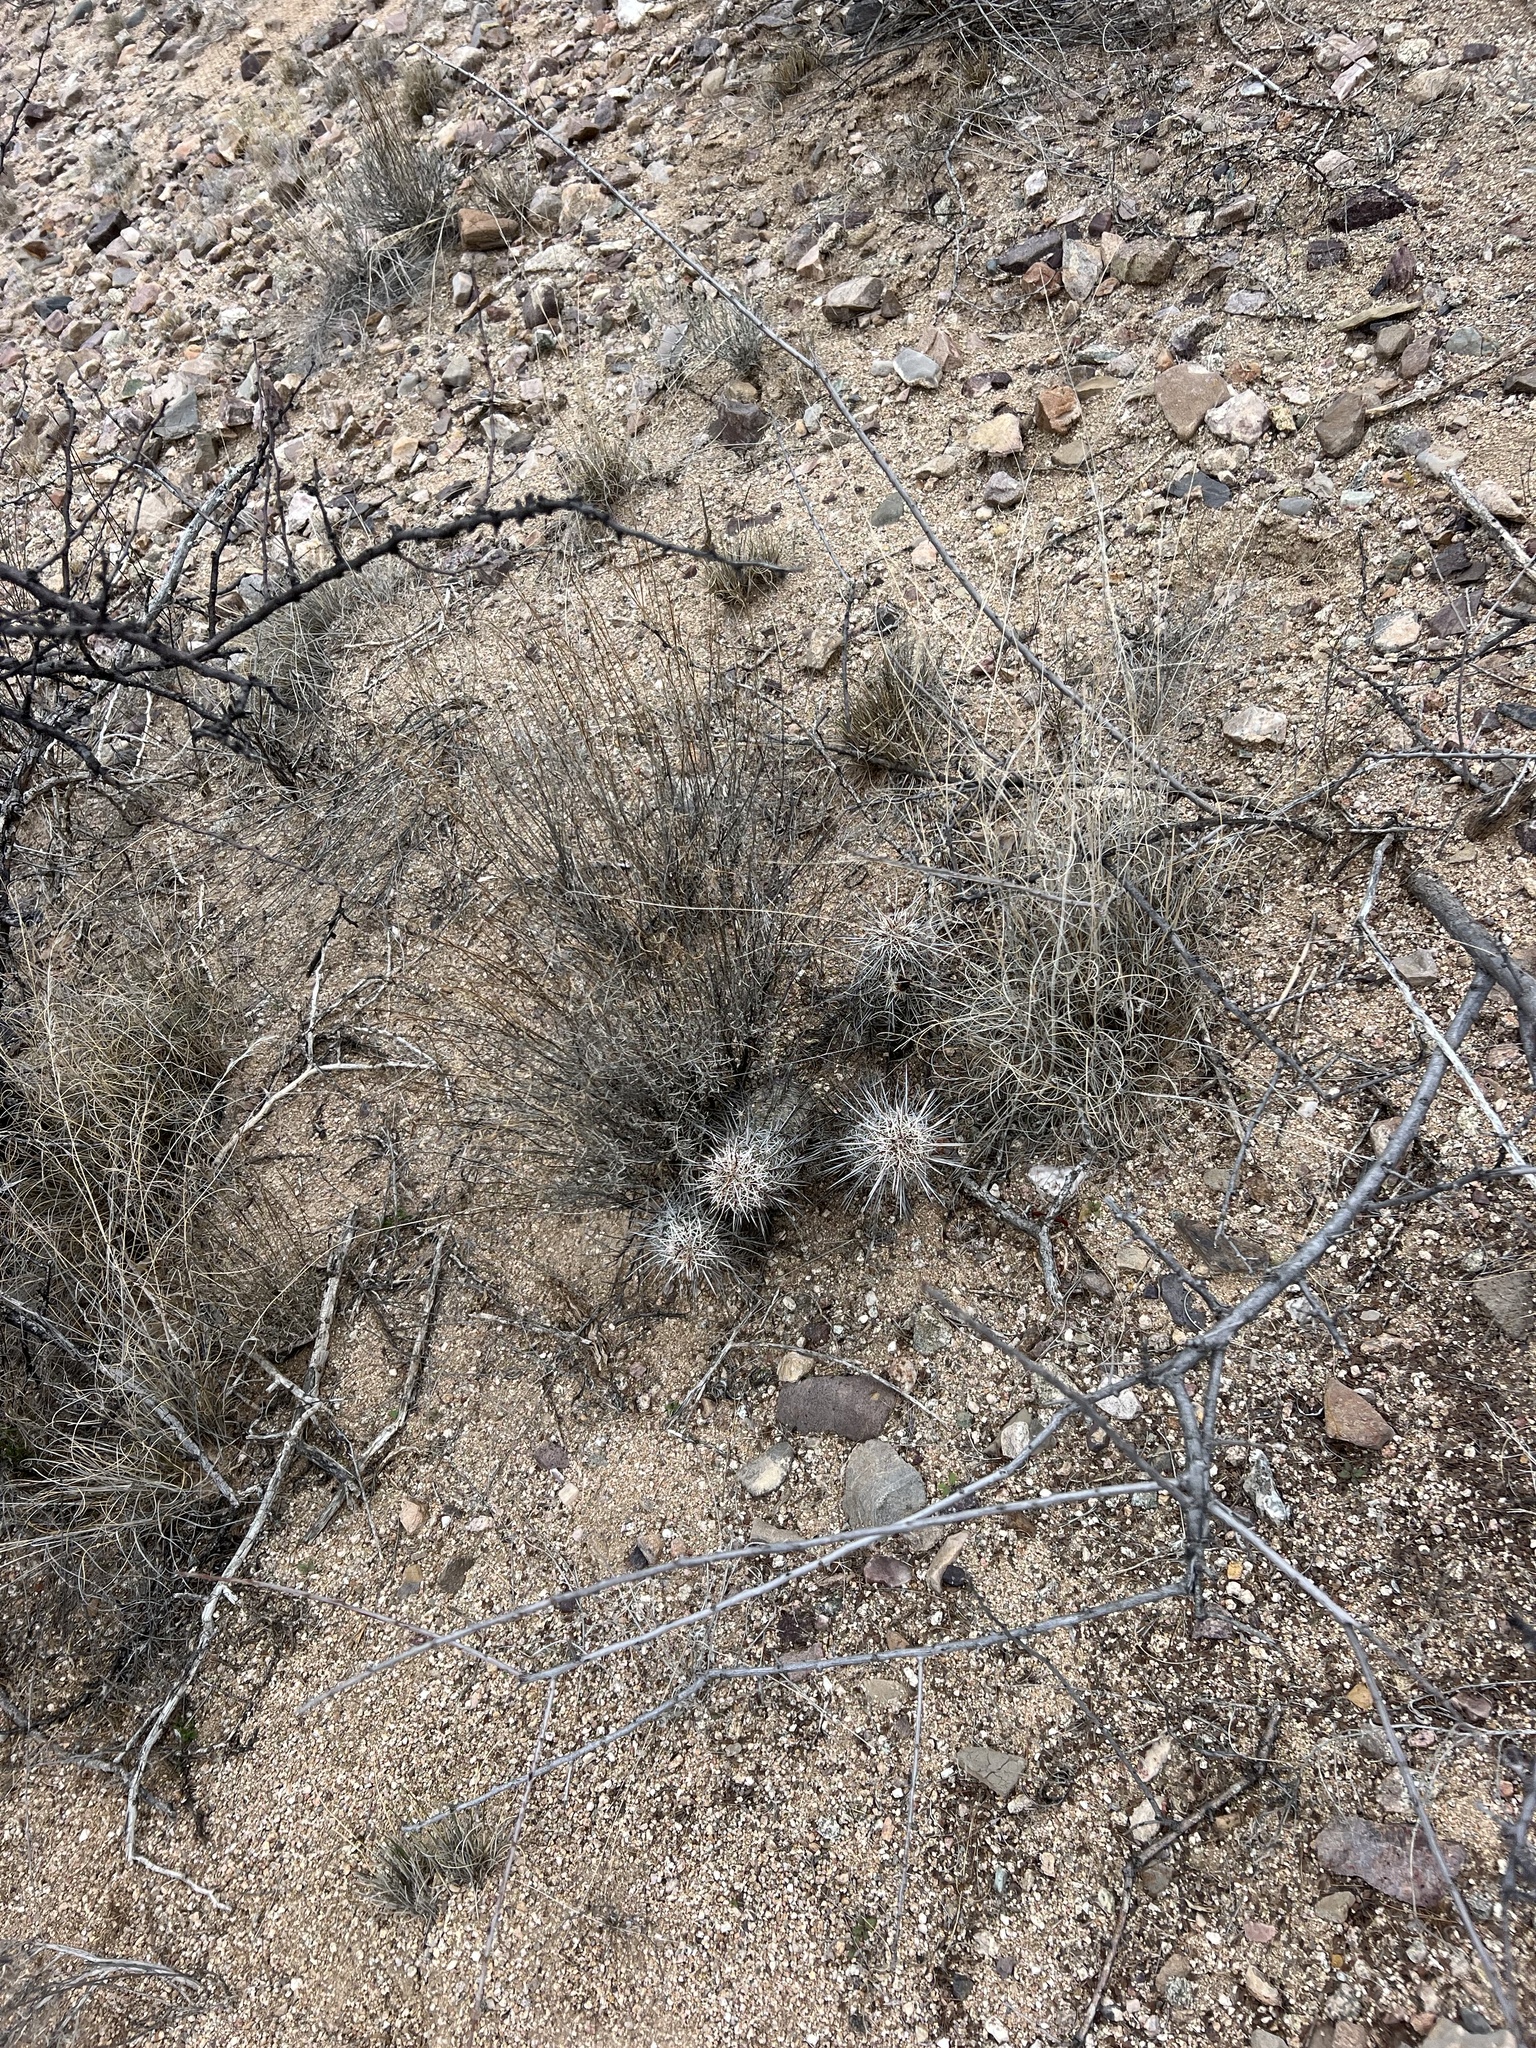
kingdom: Plantae
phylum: Tracheophyta
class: Magnoliopsida
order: Caryophyllales
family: Cactaceae
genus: Echinocereus
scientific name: Echinocereus fasciculatus
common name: Bundle hedgehog
